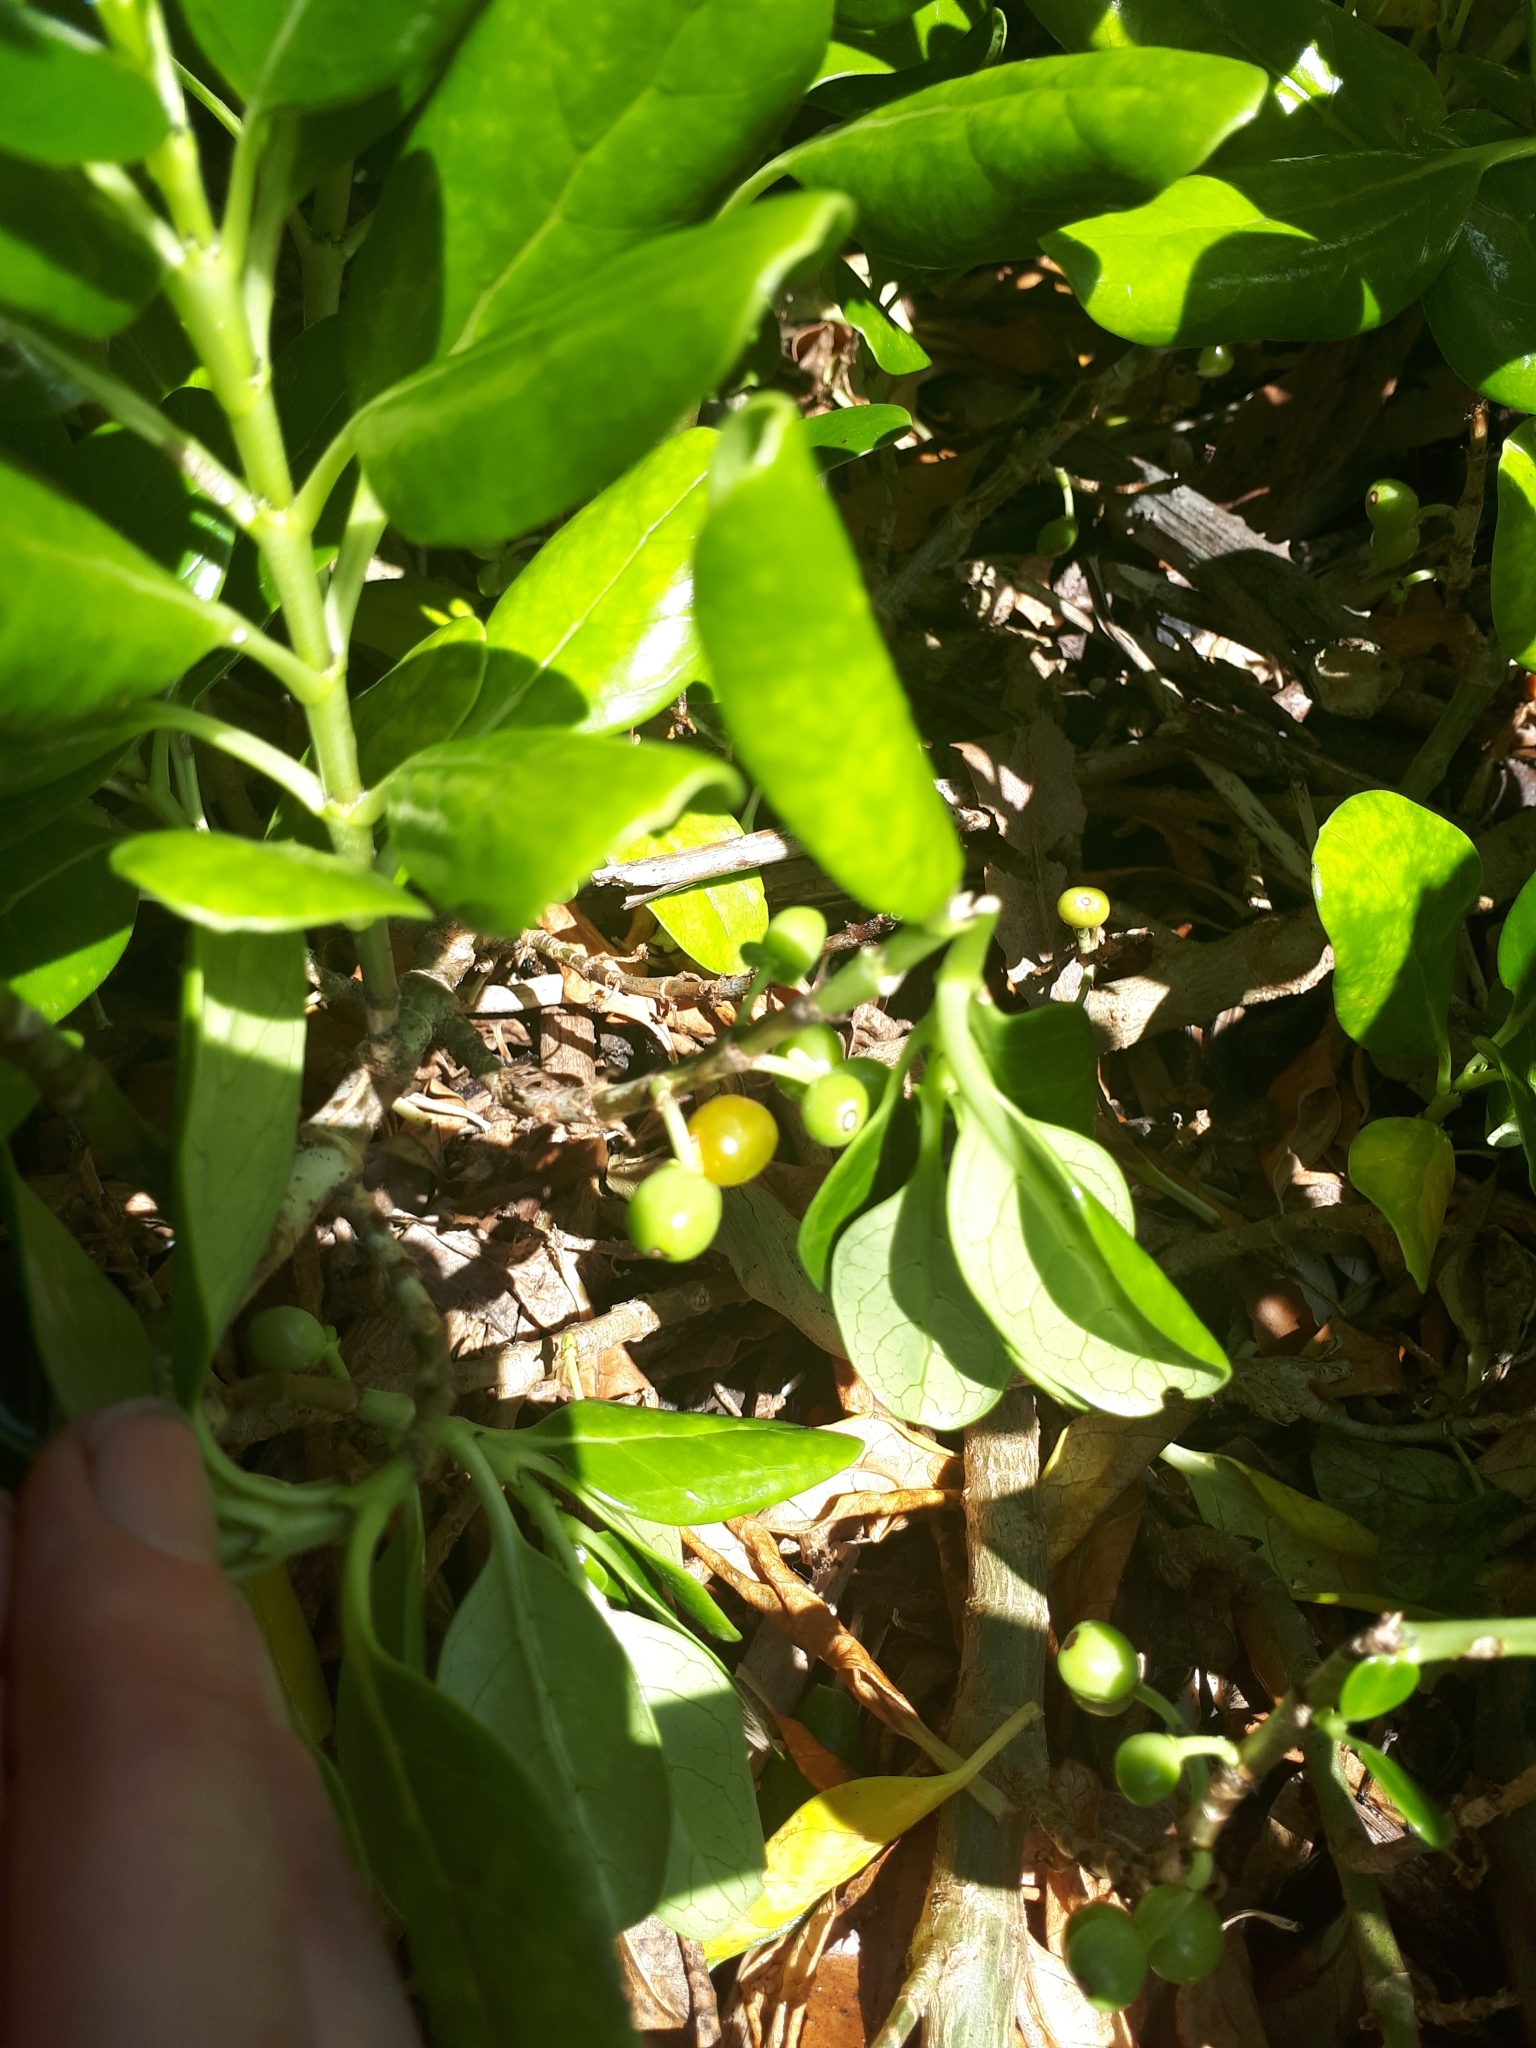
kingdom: Plantae
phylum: Tracheophyta
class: Magnoliopsida
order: Gentianales
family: Rubiaceae
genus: Coprosma
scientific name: Coprosma repens
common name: Tree bedstraw
